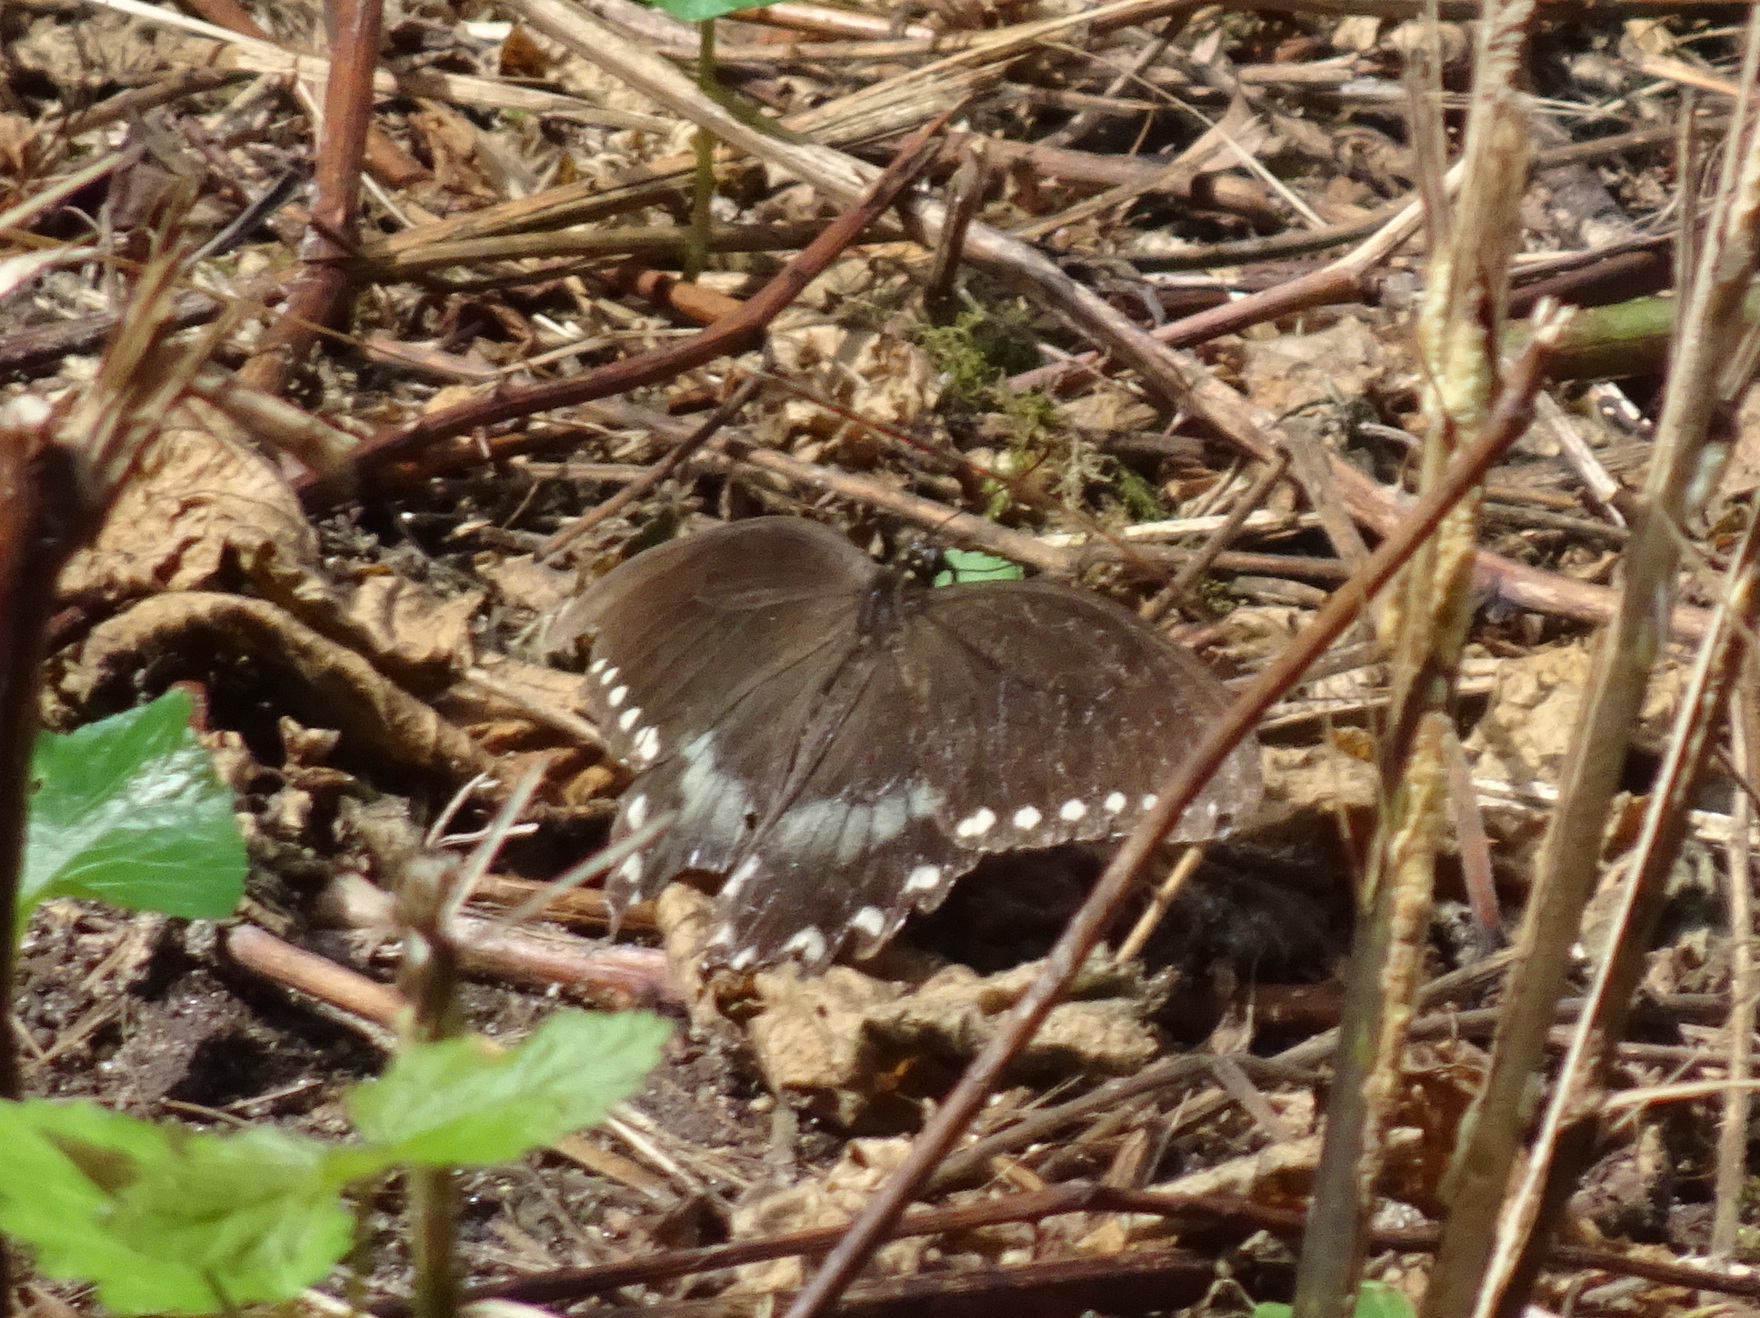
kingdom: Animalia
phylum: Arthropoda
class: Insecta
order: Lepidoptera
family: Papilionidae
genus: Papilio
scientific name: Papilio troilus
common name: Spicebush swallowtail
